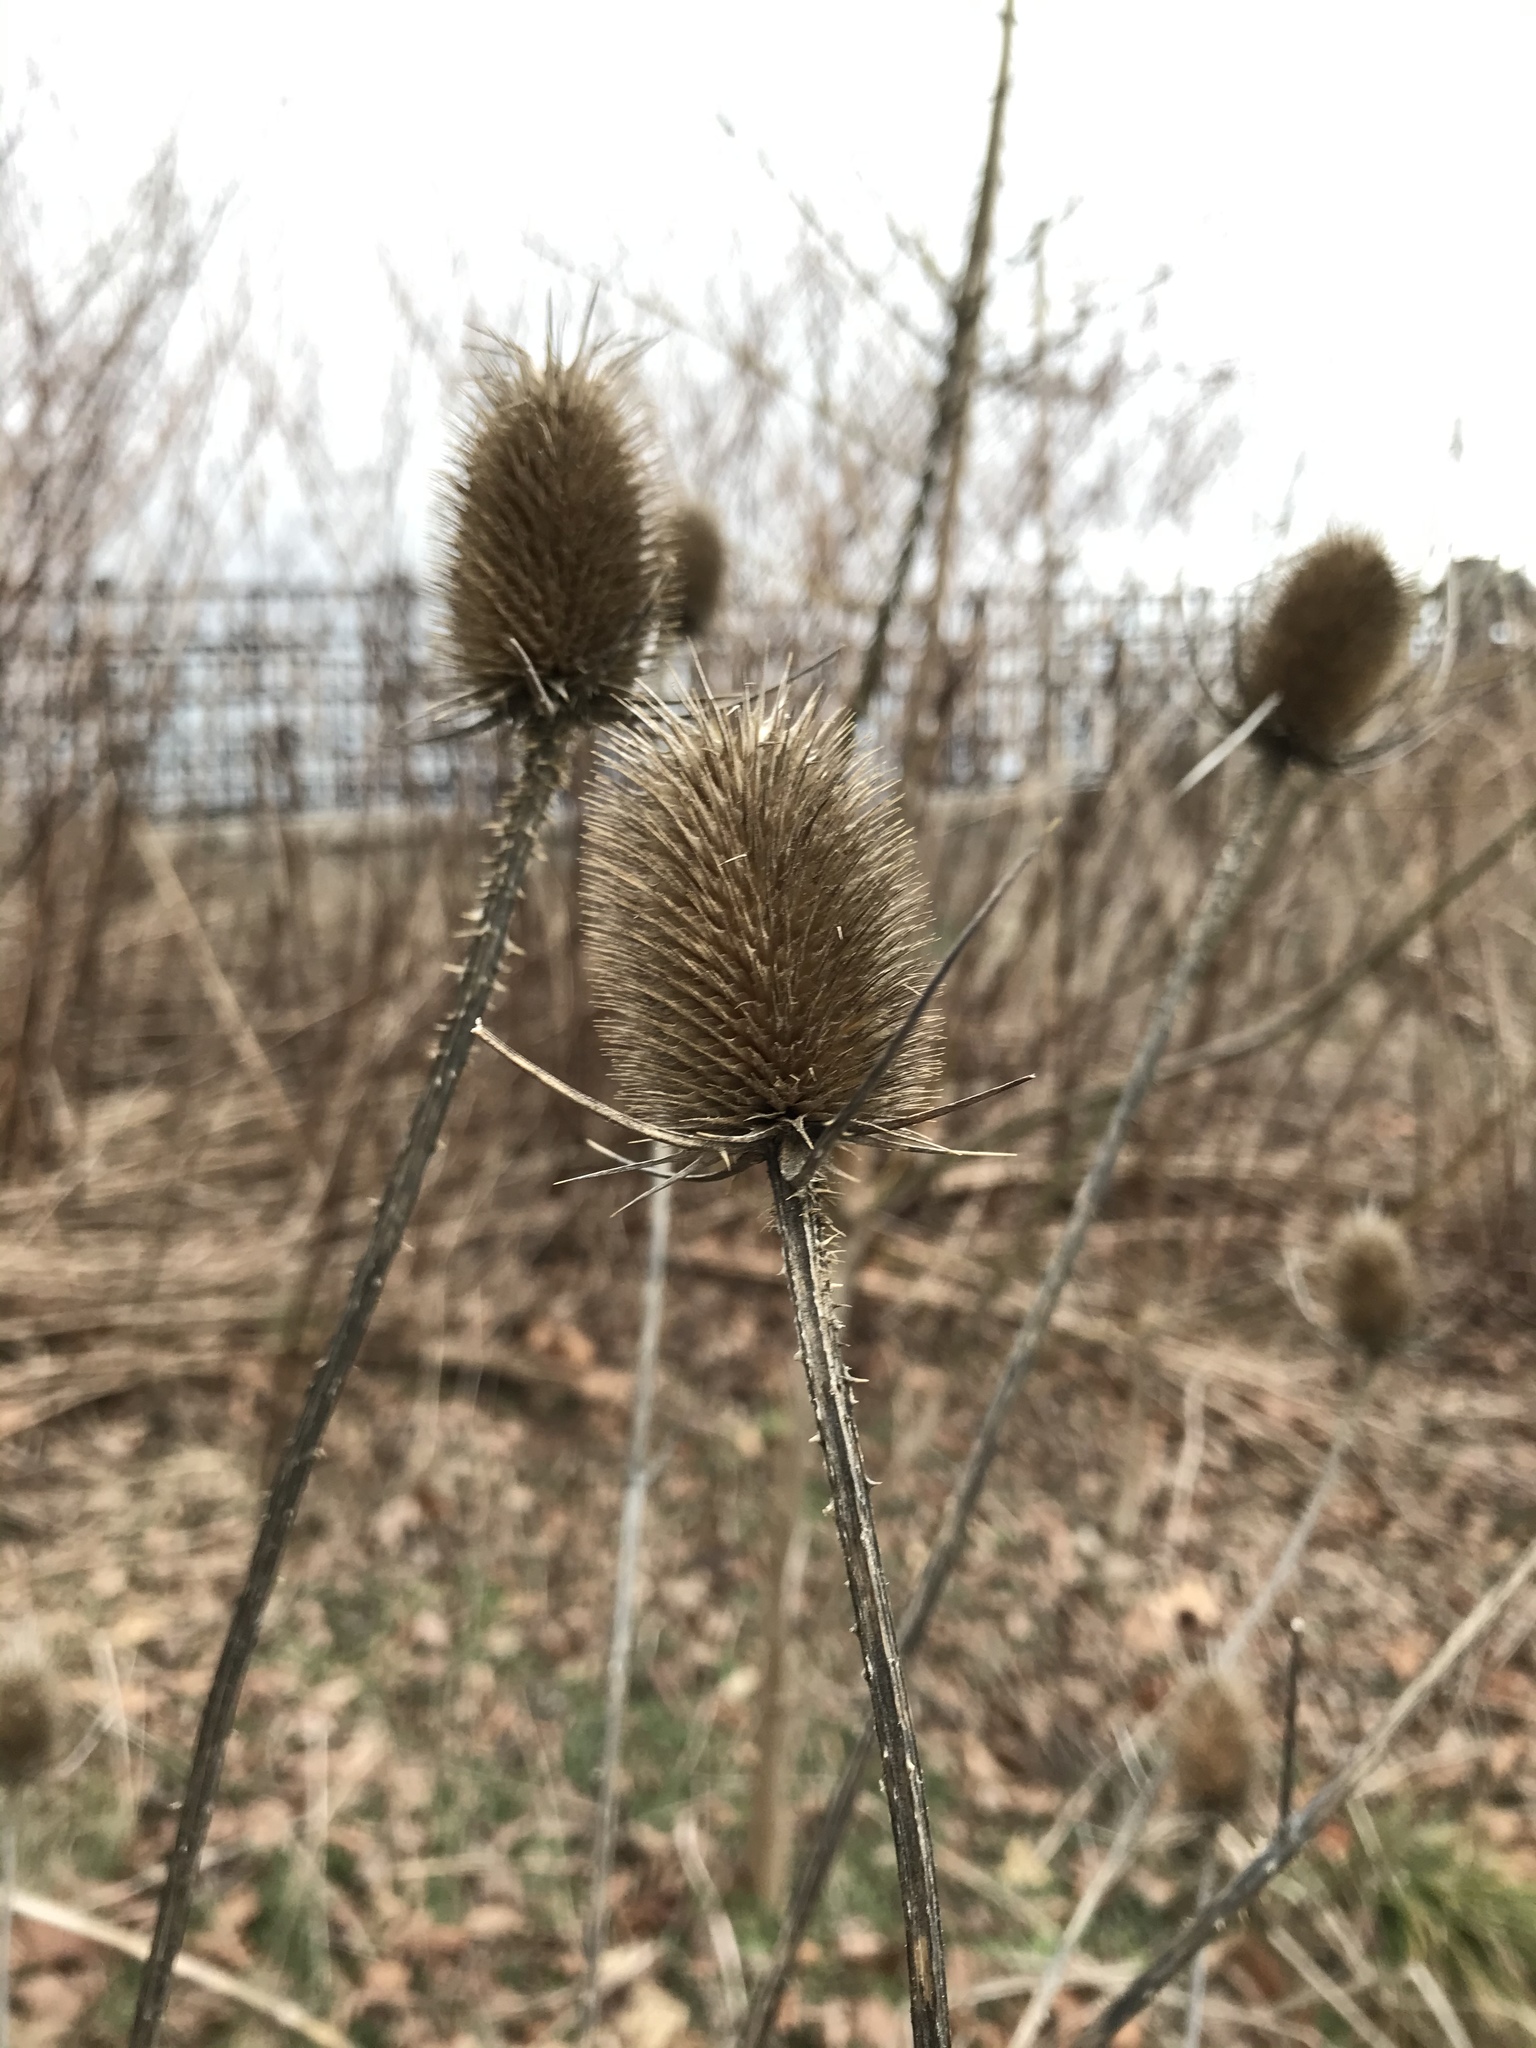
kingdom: Plantae
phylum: Tracheophyta
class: Magnoliopsida
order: Dipsacales
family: Caprifoliaceae
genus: Dipsacus
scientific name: Dipsacus fullonum
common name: Teasel
